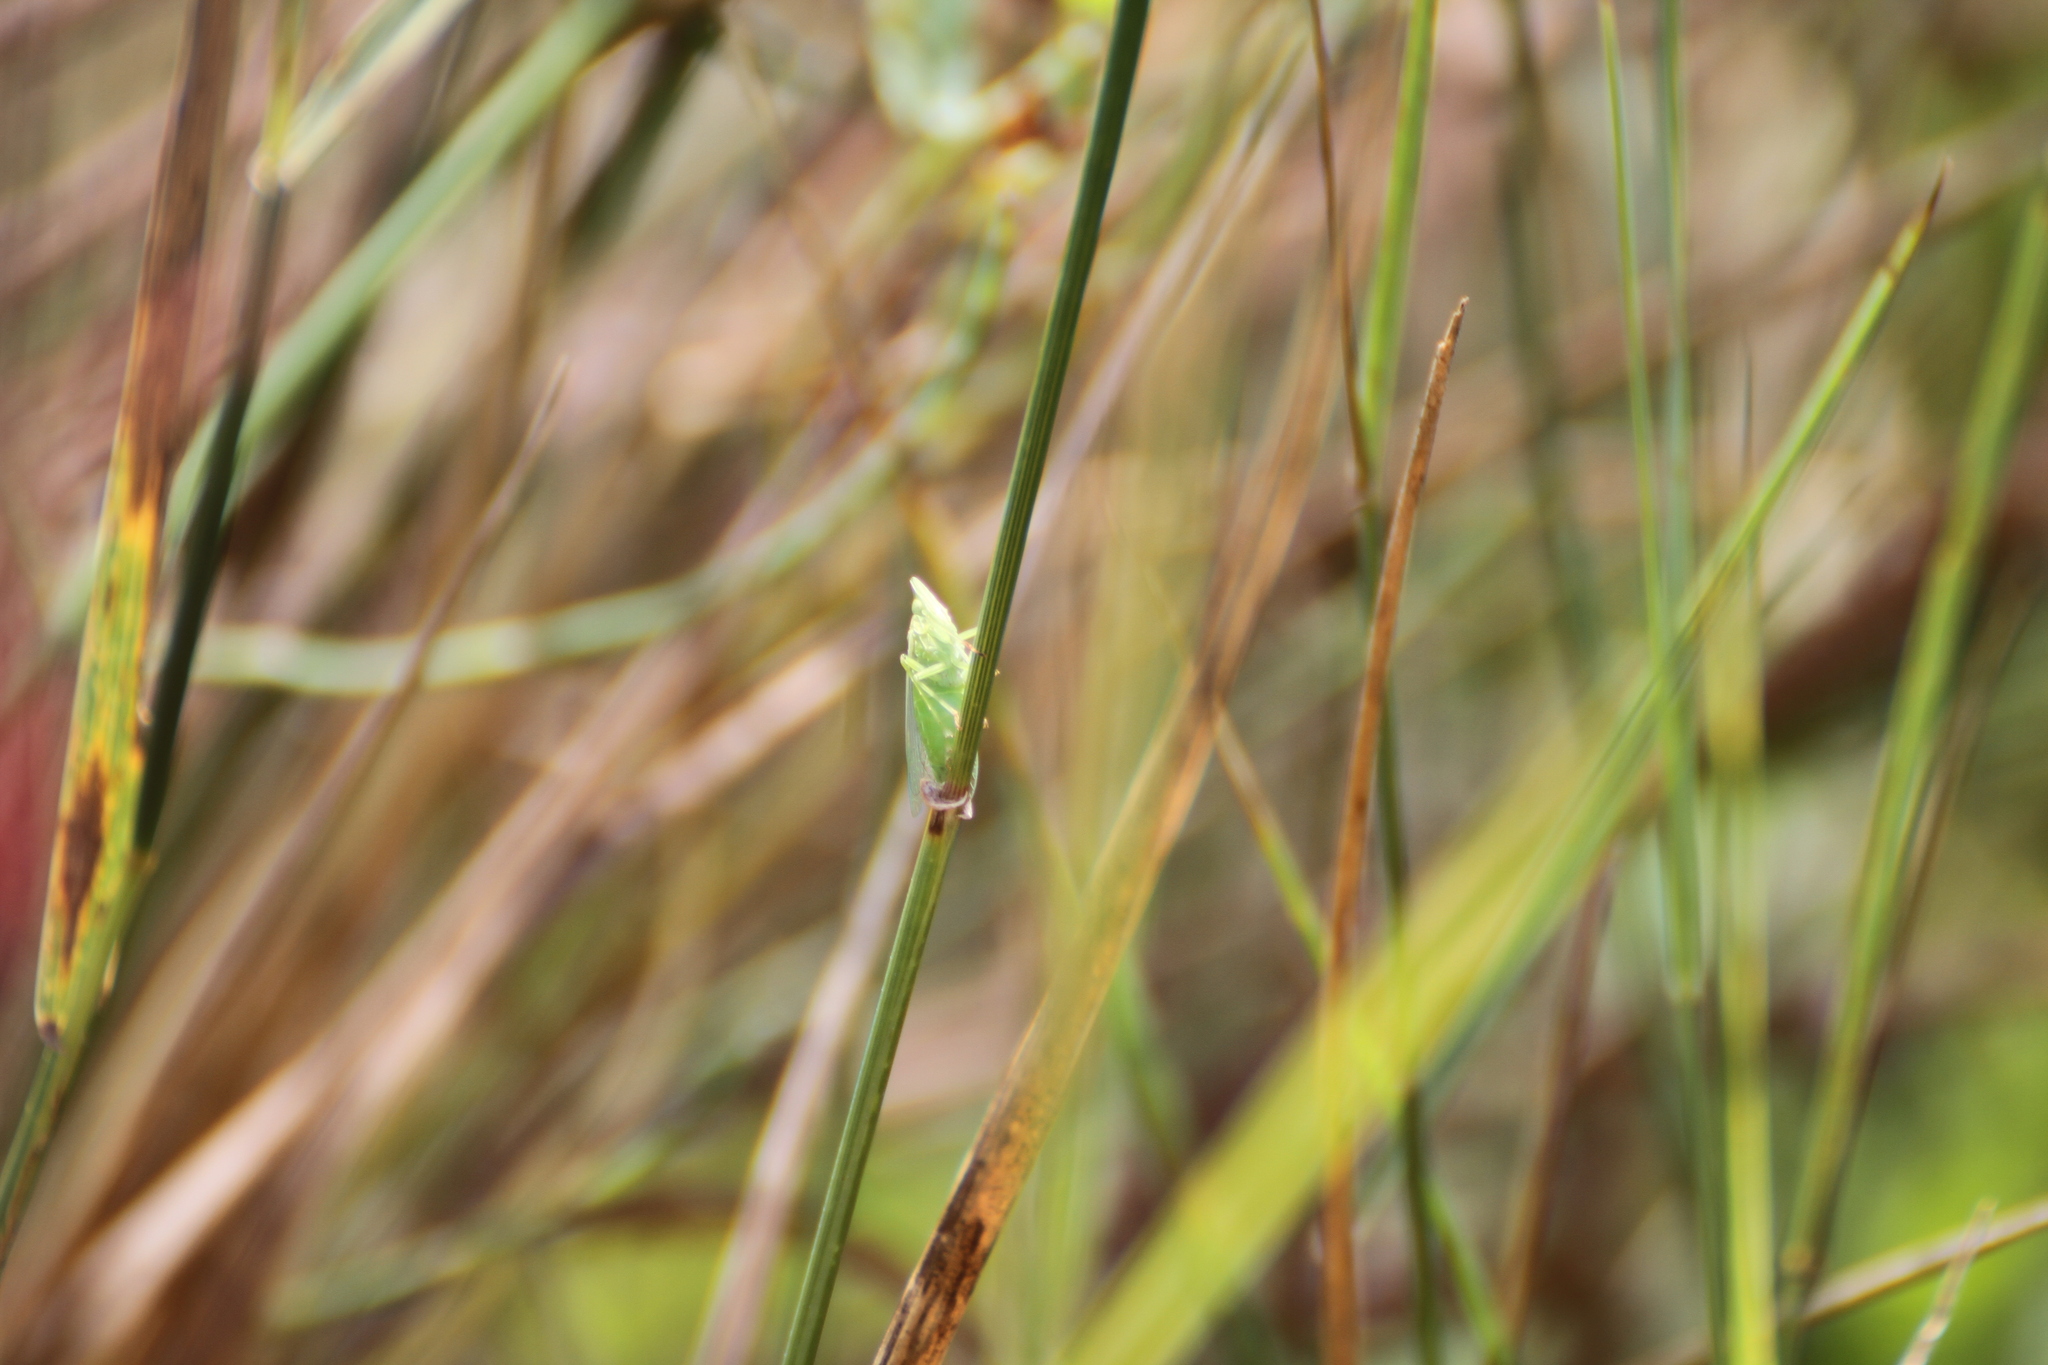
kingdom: Animalia
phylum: Arthropoda
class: Insecta
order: Hemiptera
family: Dictyopharidae
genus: Dictyophara
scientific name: Dictyophara europaea
